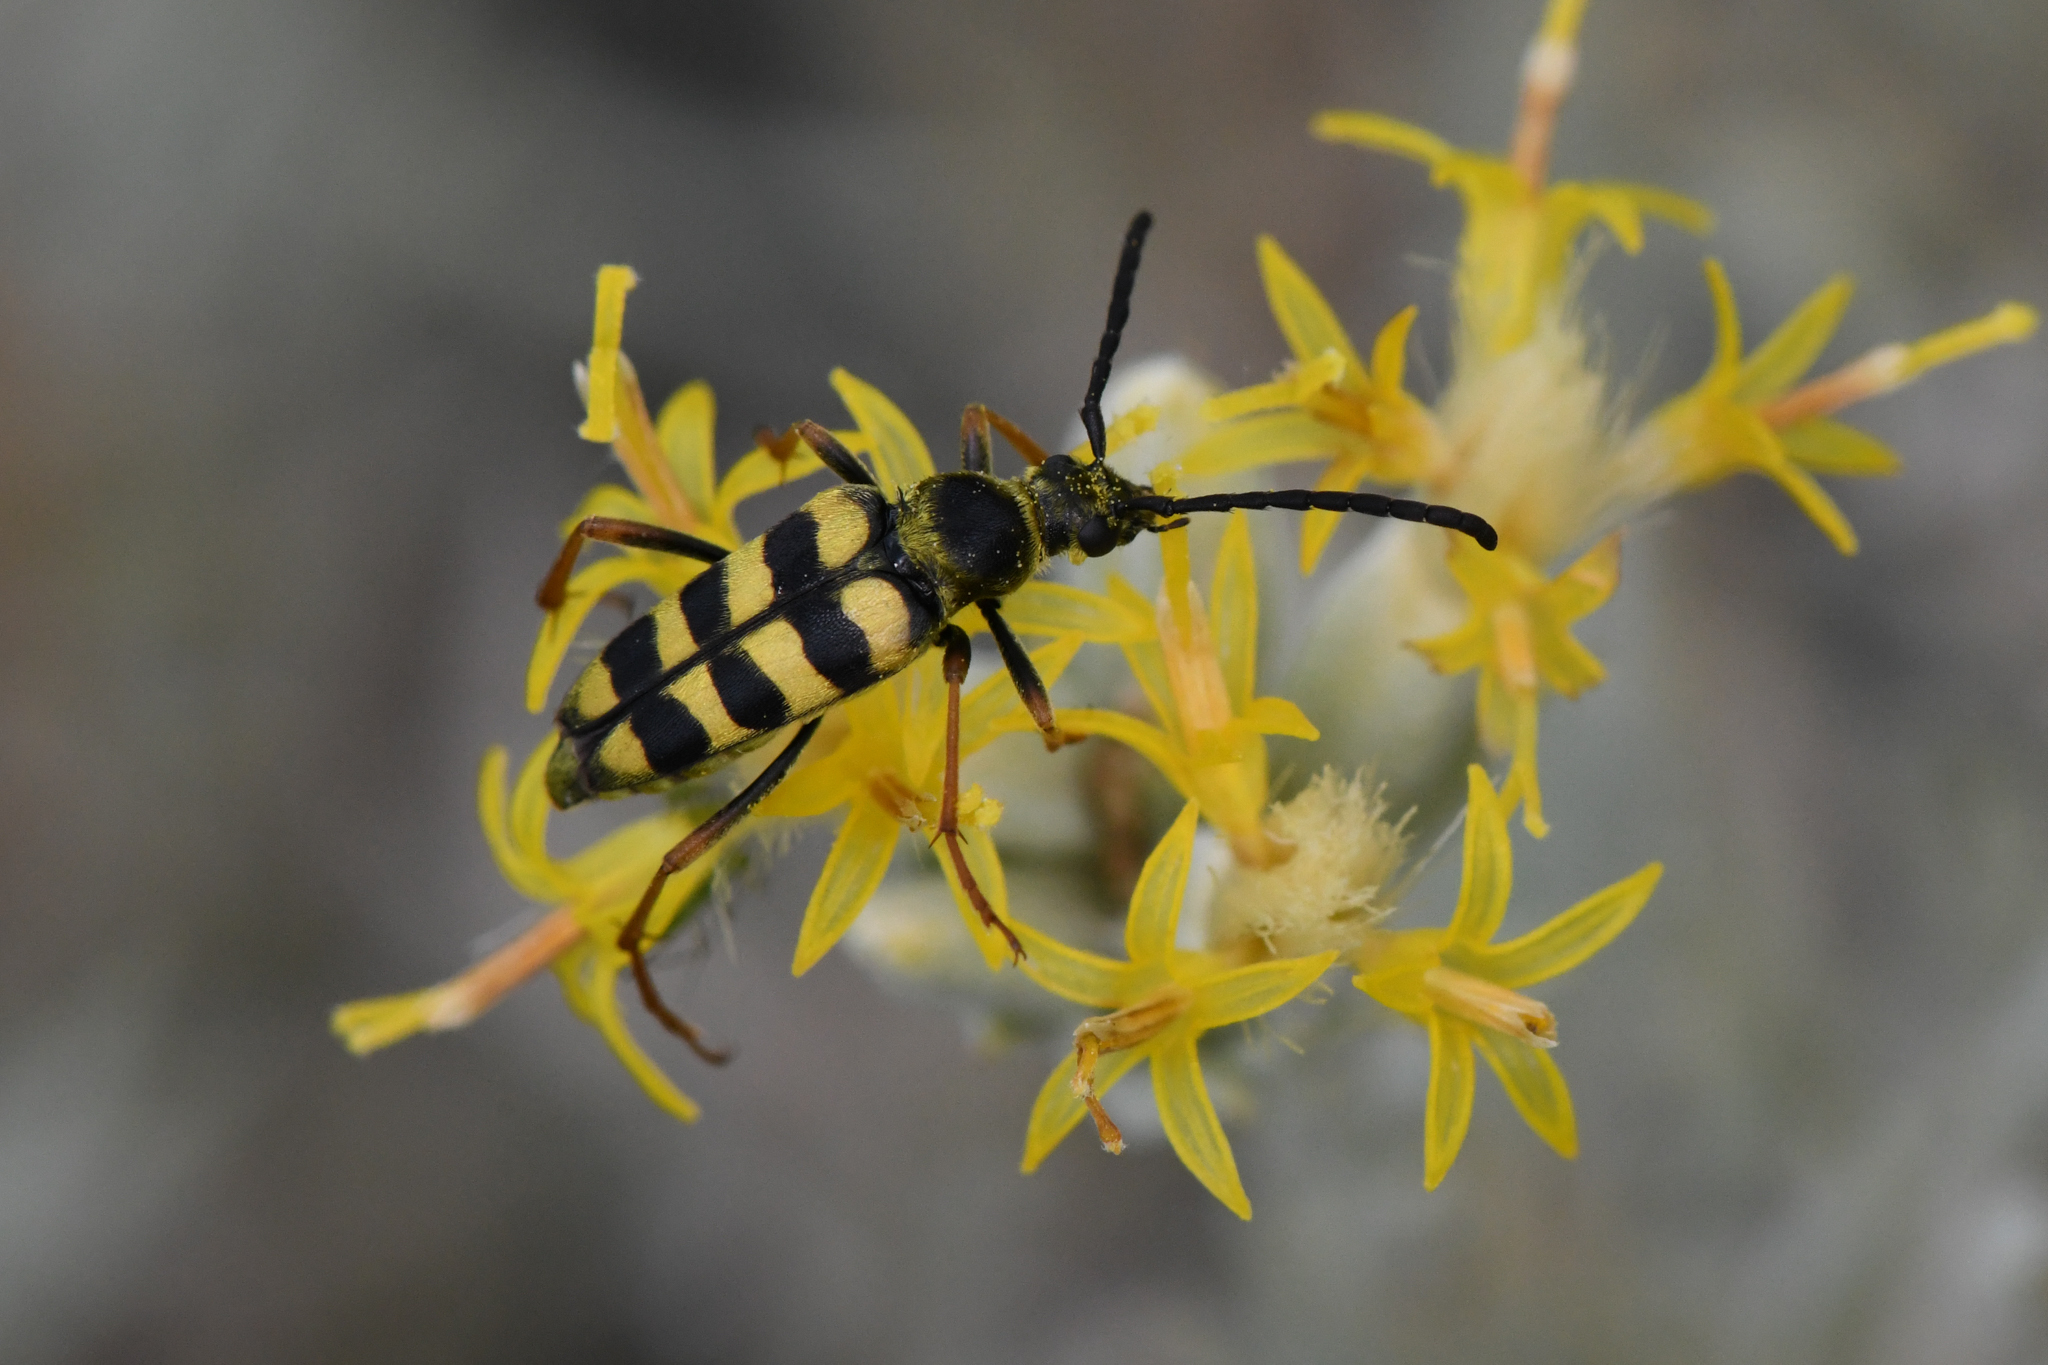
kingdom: Animalia
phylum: Arthropoda
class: Insecta
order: Coleoptera
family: Cerambycidae
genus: Stenostrophia
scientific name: Stenostrophia tribalteata
